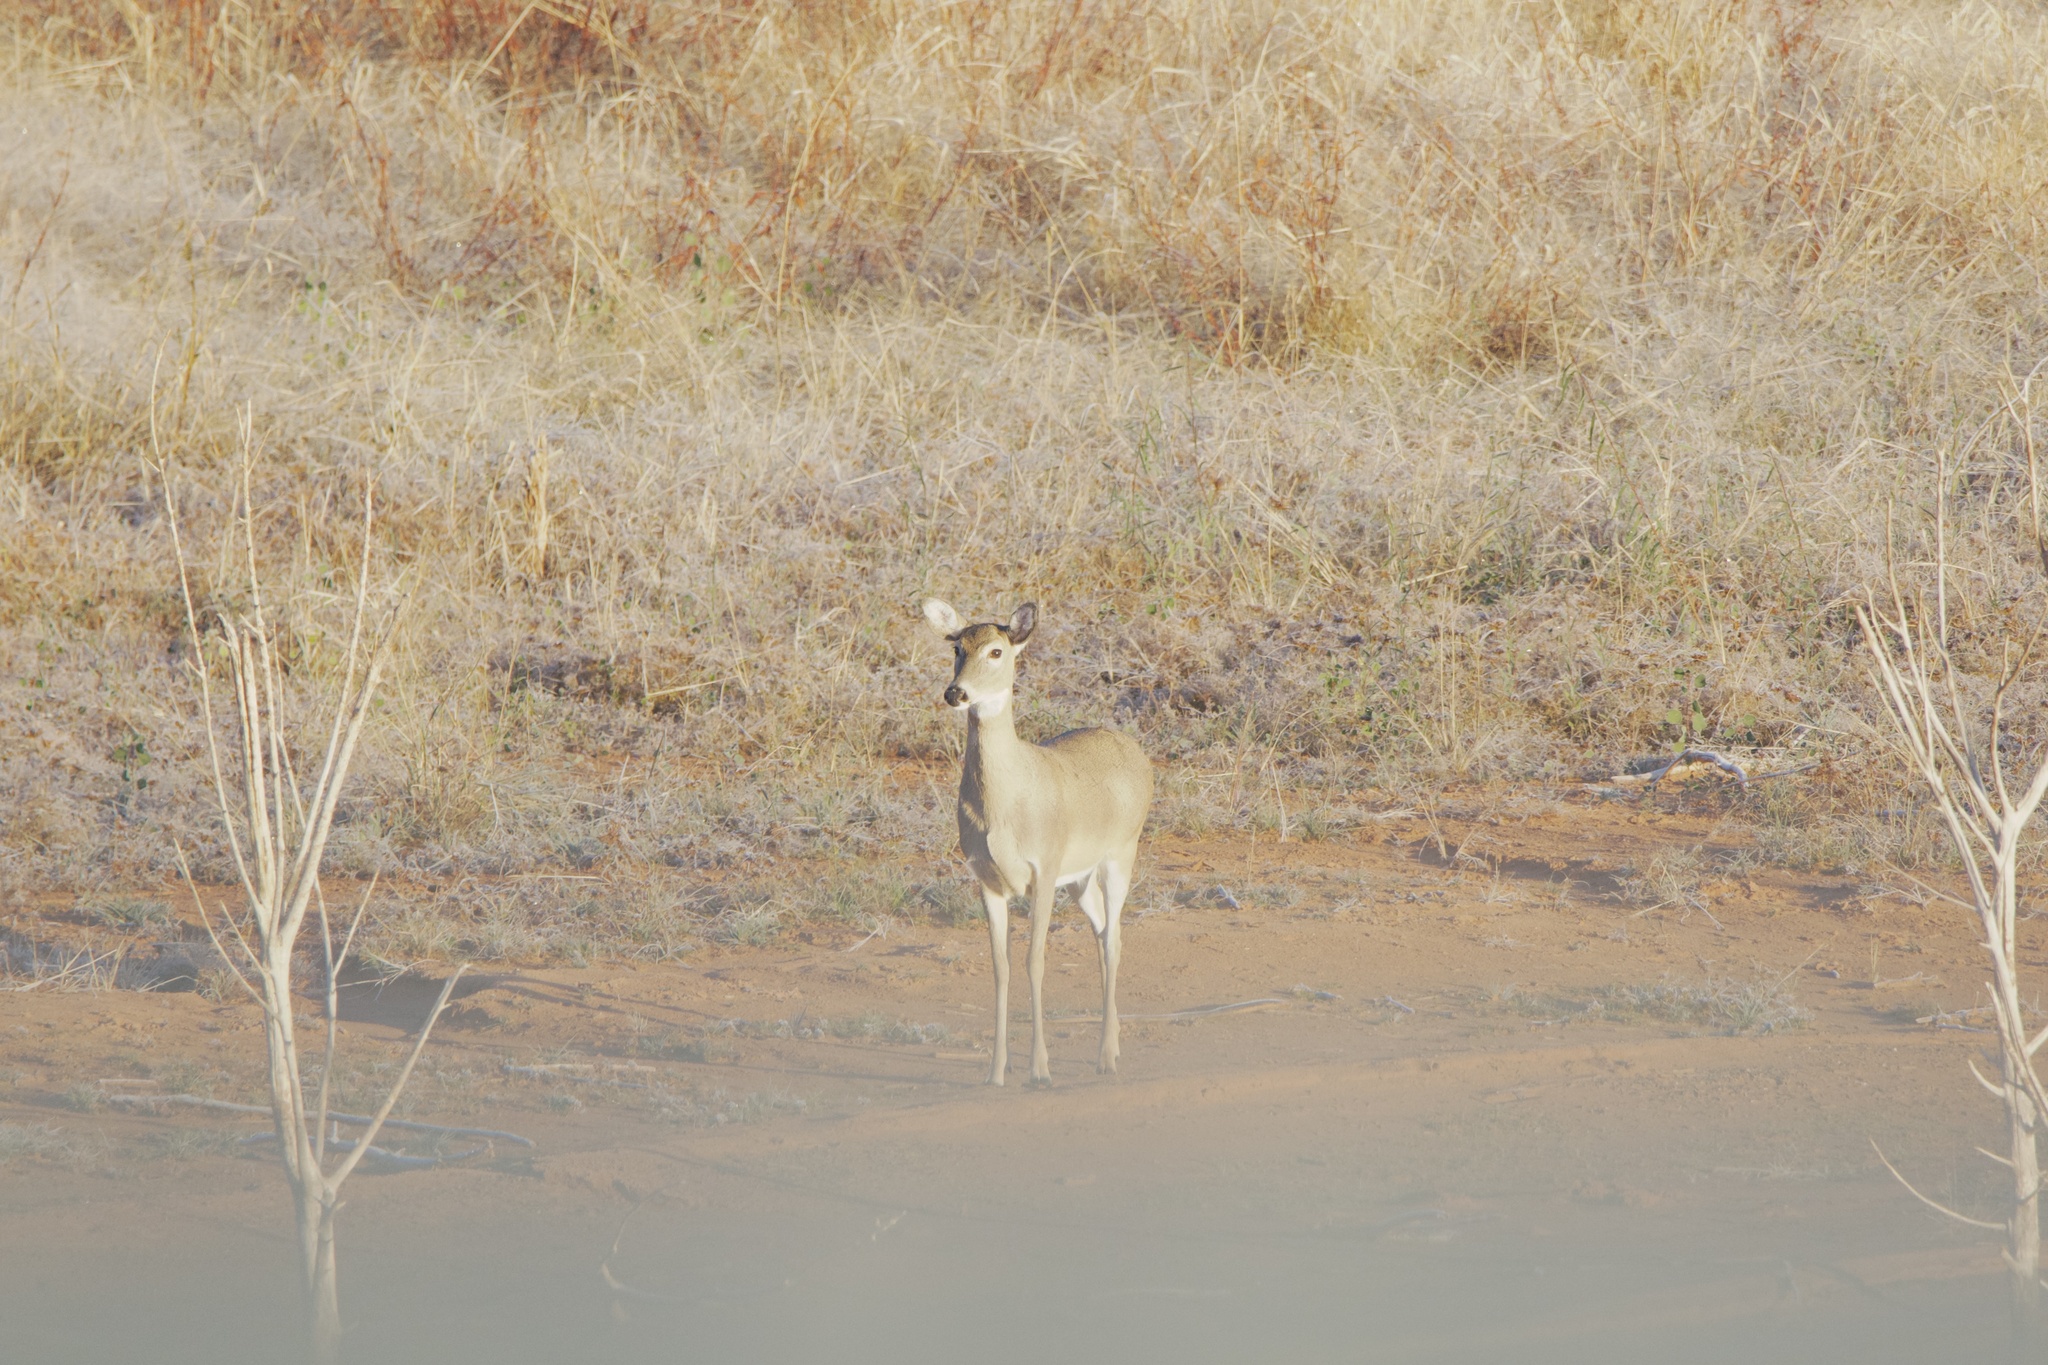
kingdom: Animalia
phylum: Chordata
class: Mammalia
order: Artiodactyla
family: Cervidae
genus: Odocoileus
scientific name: Odocoileus virginianus
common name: White-tailed deer
